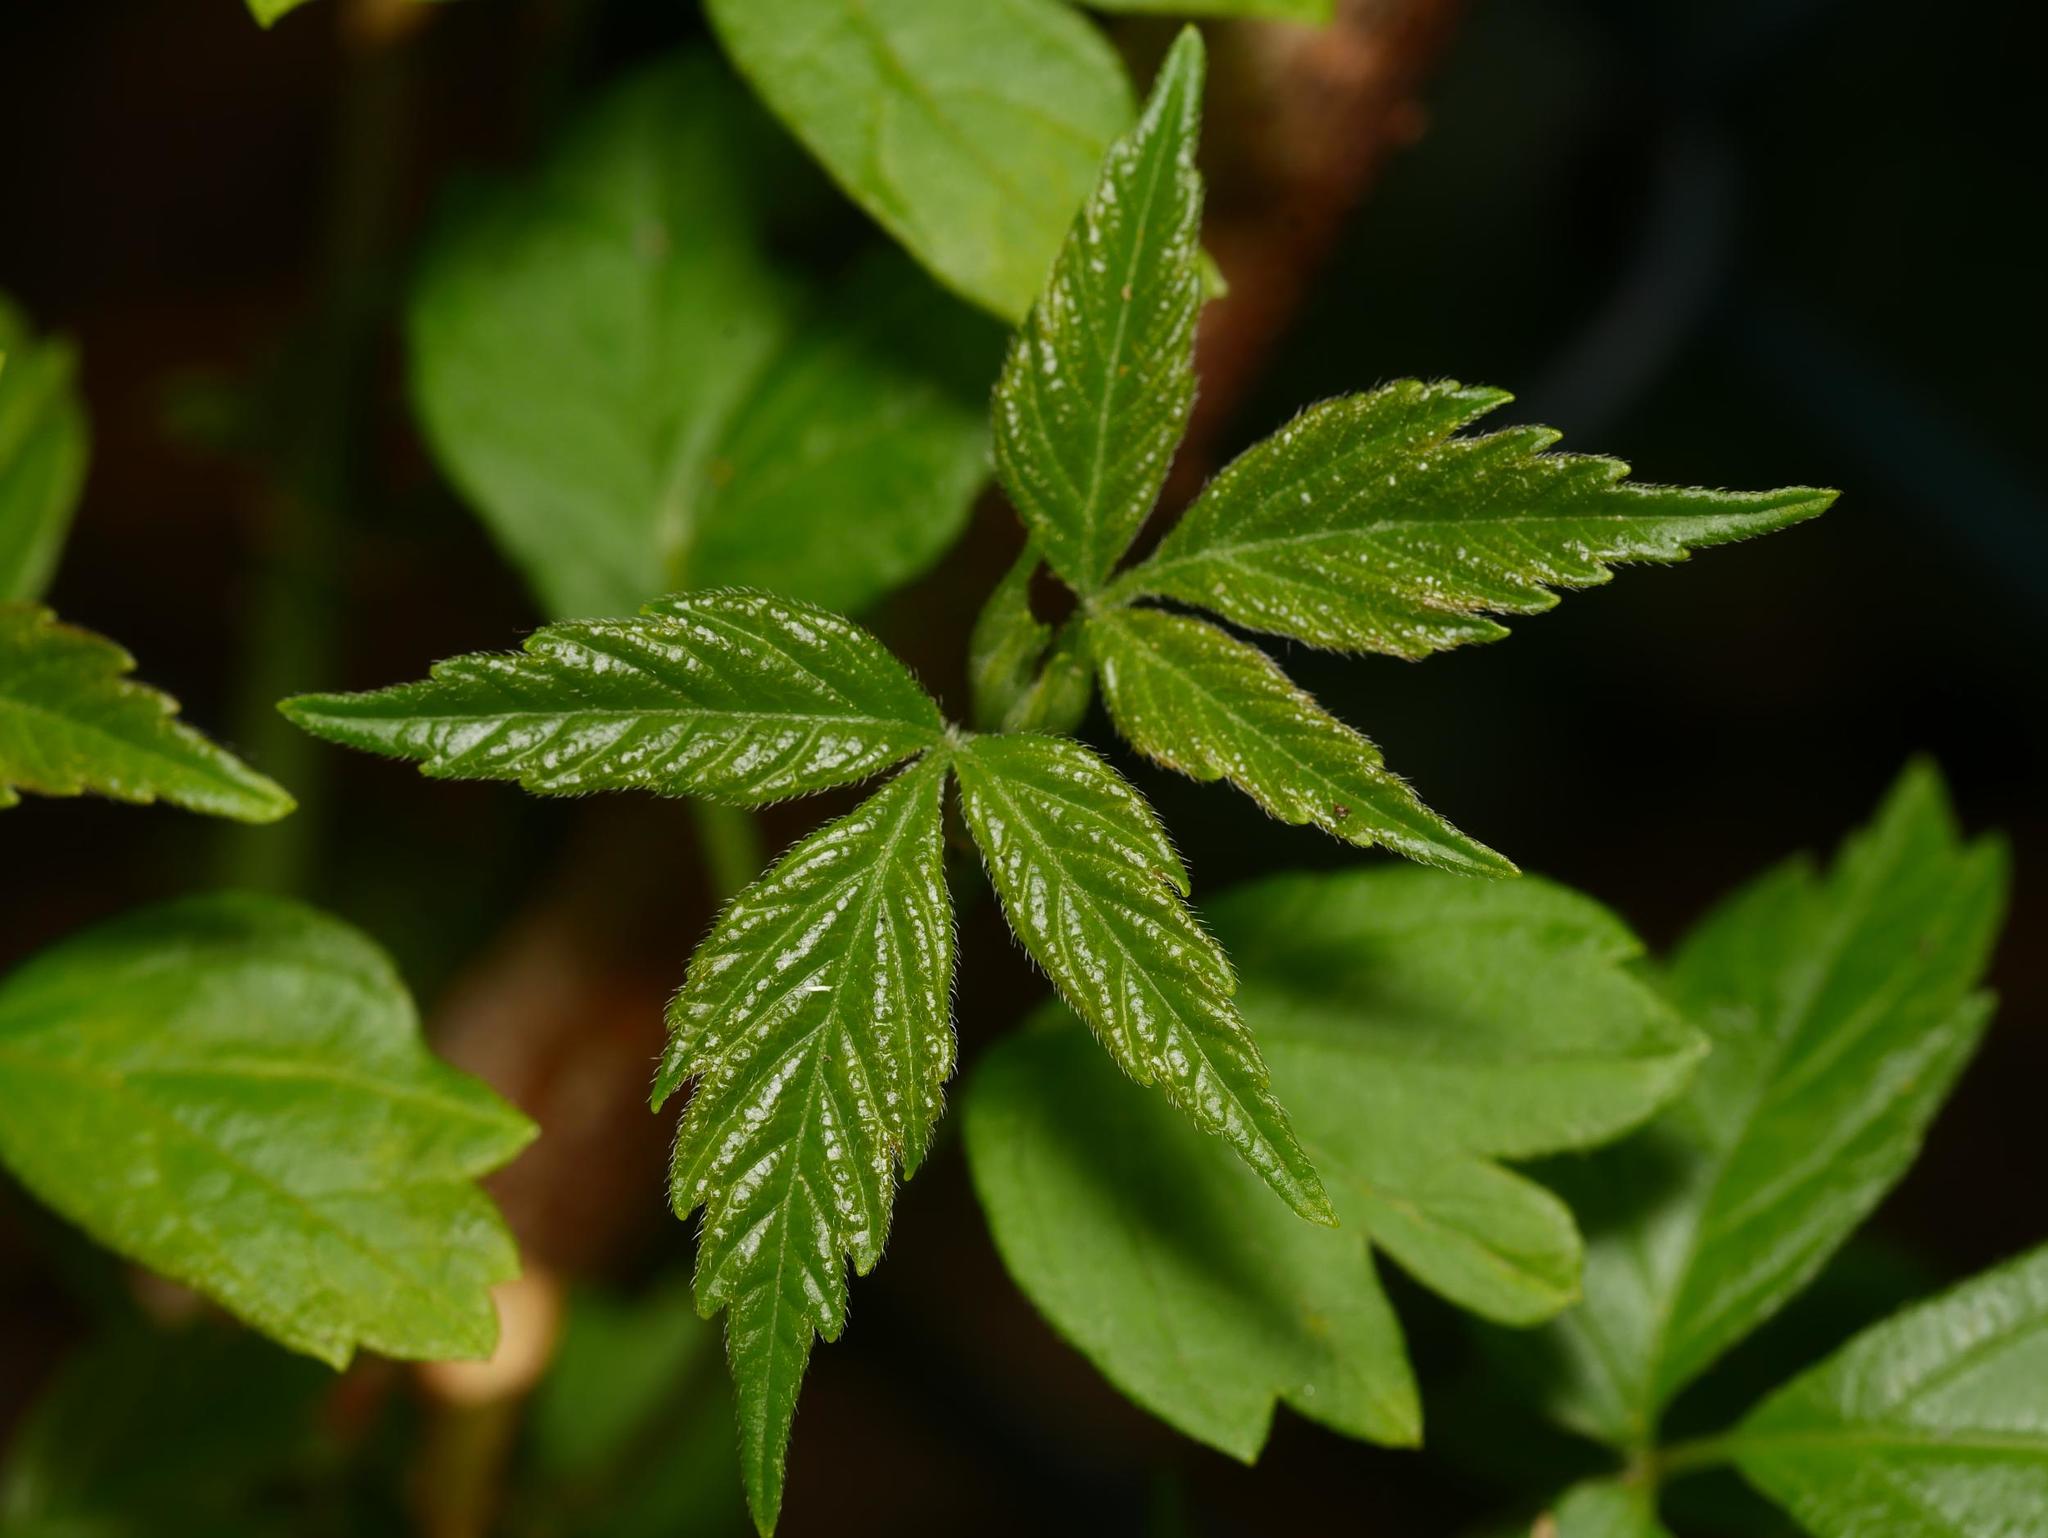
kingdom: Plantae
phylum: Tracheophyta
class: Magnoliopsida
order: Sapindales
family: Sapindaceae
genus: Acer
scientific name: Acer negundo
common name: Ashleaf maple
